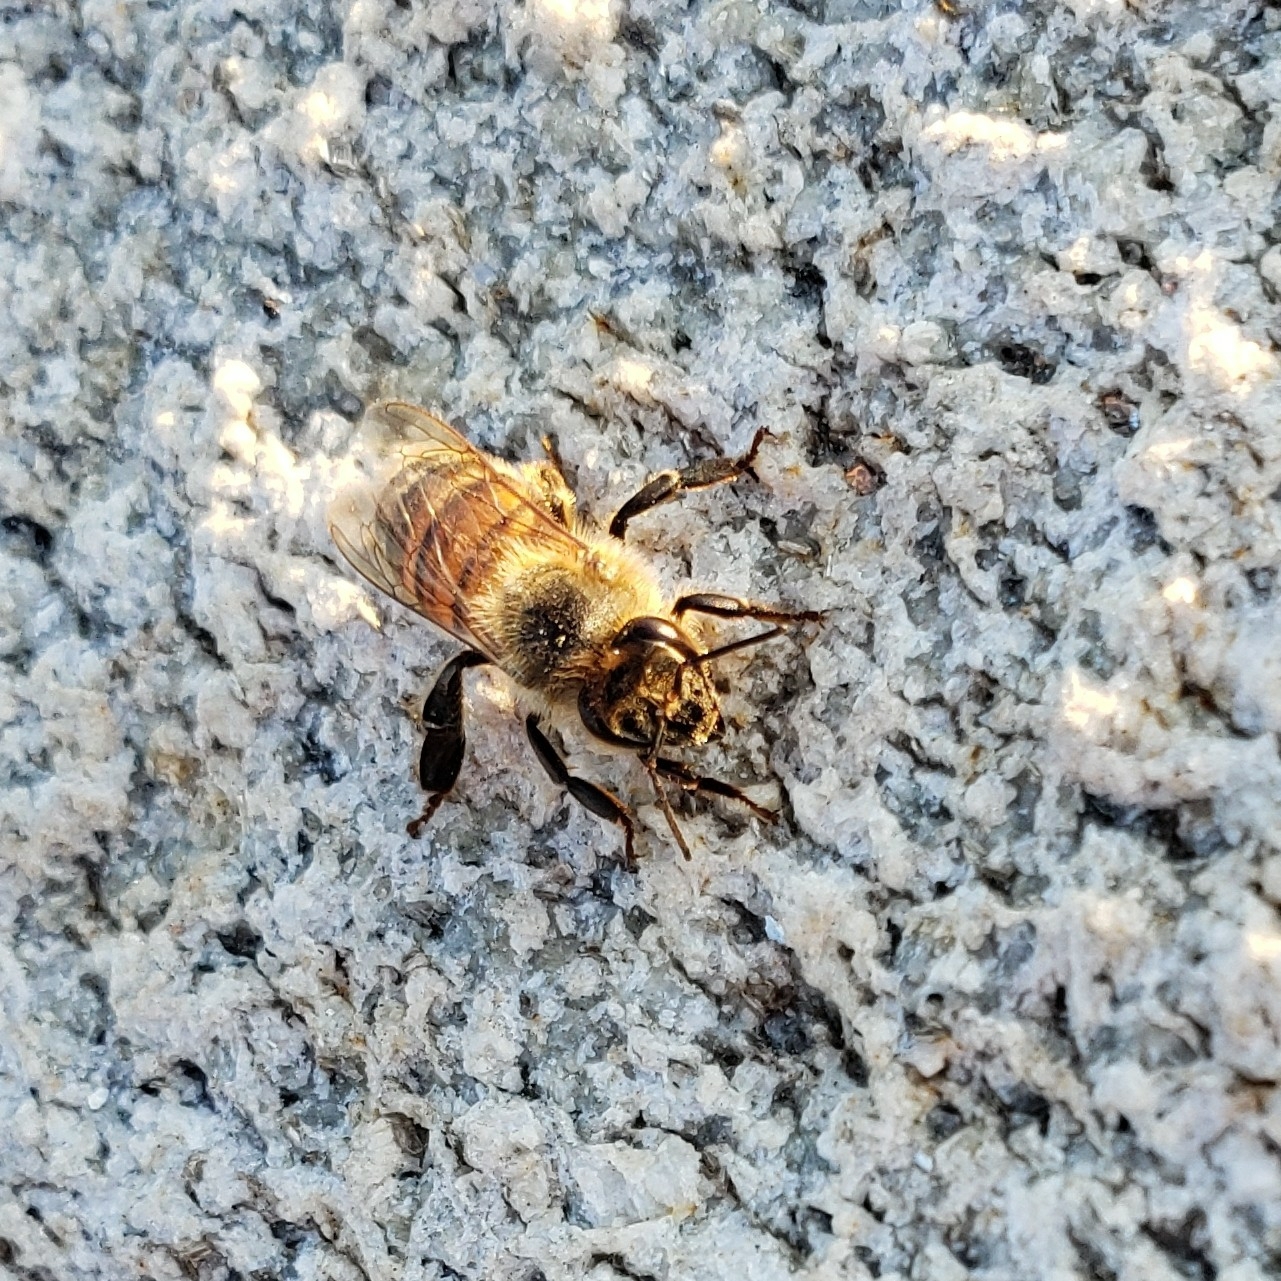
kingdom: Animalia
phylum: Arthropoda
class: Insecta
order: Hymenoptera
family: Apidae
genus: Apis
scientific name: Apis mellifera
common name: Honey bee
